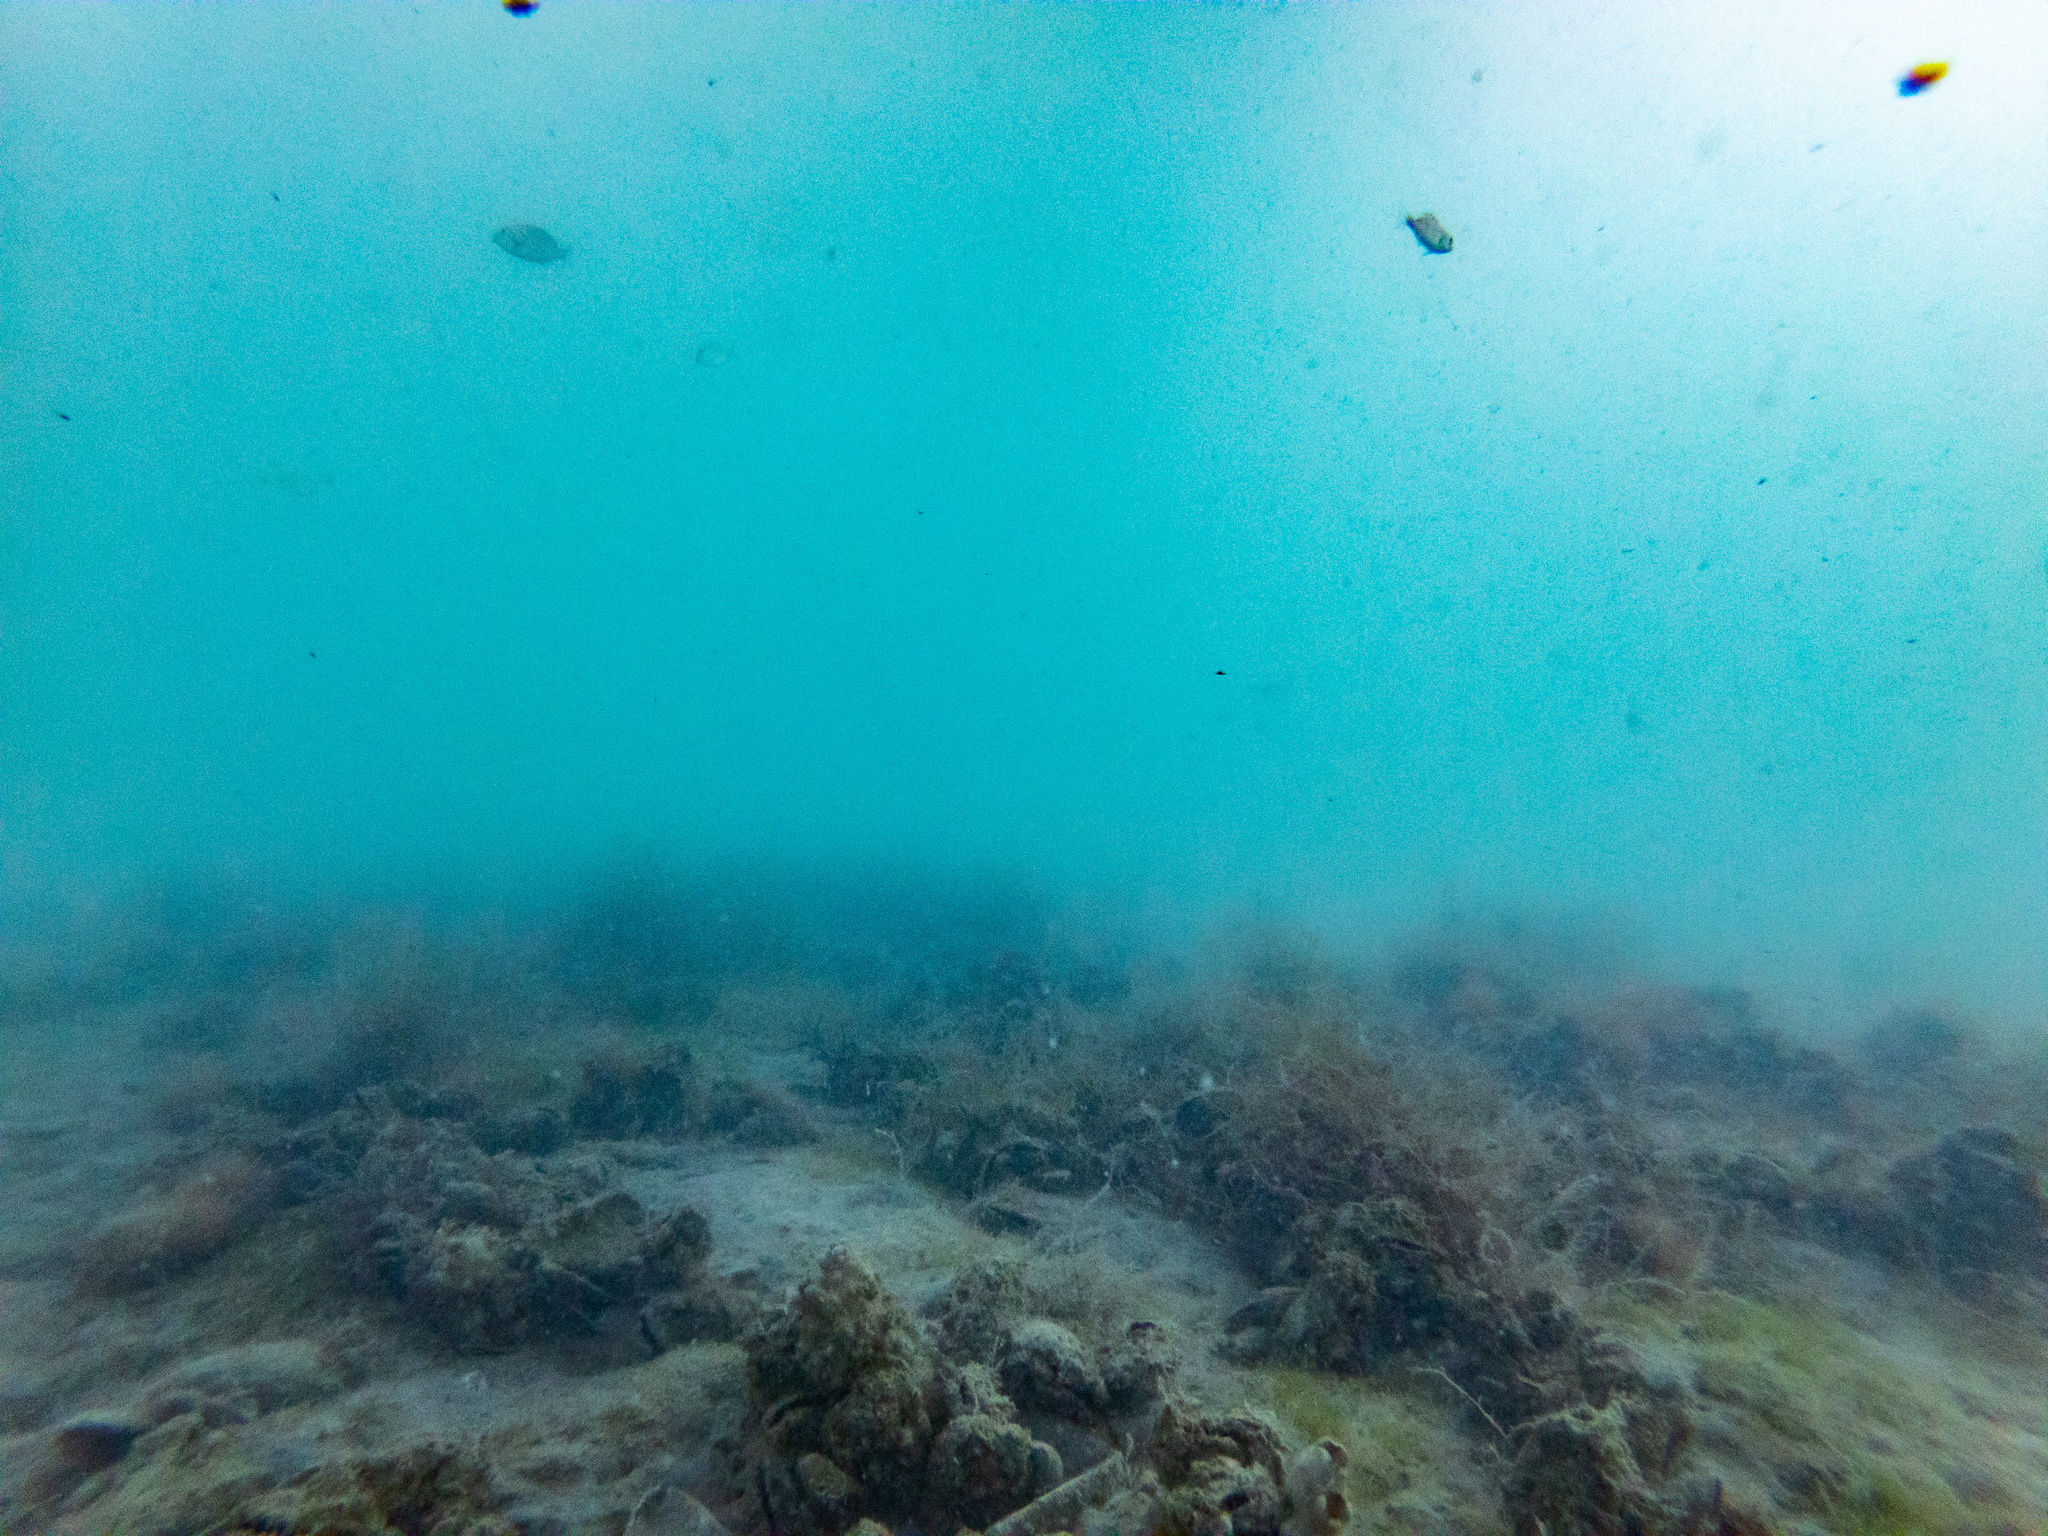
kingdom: Animalia
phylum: Chordata
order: Perciformes
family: Sparidae
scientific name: Sparidae
